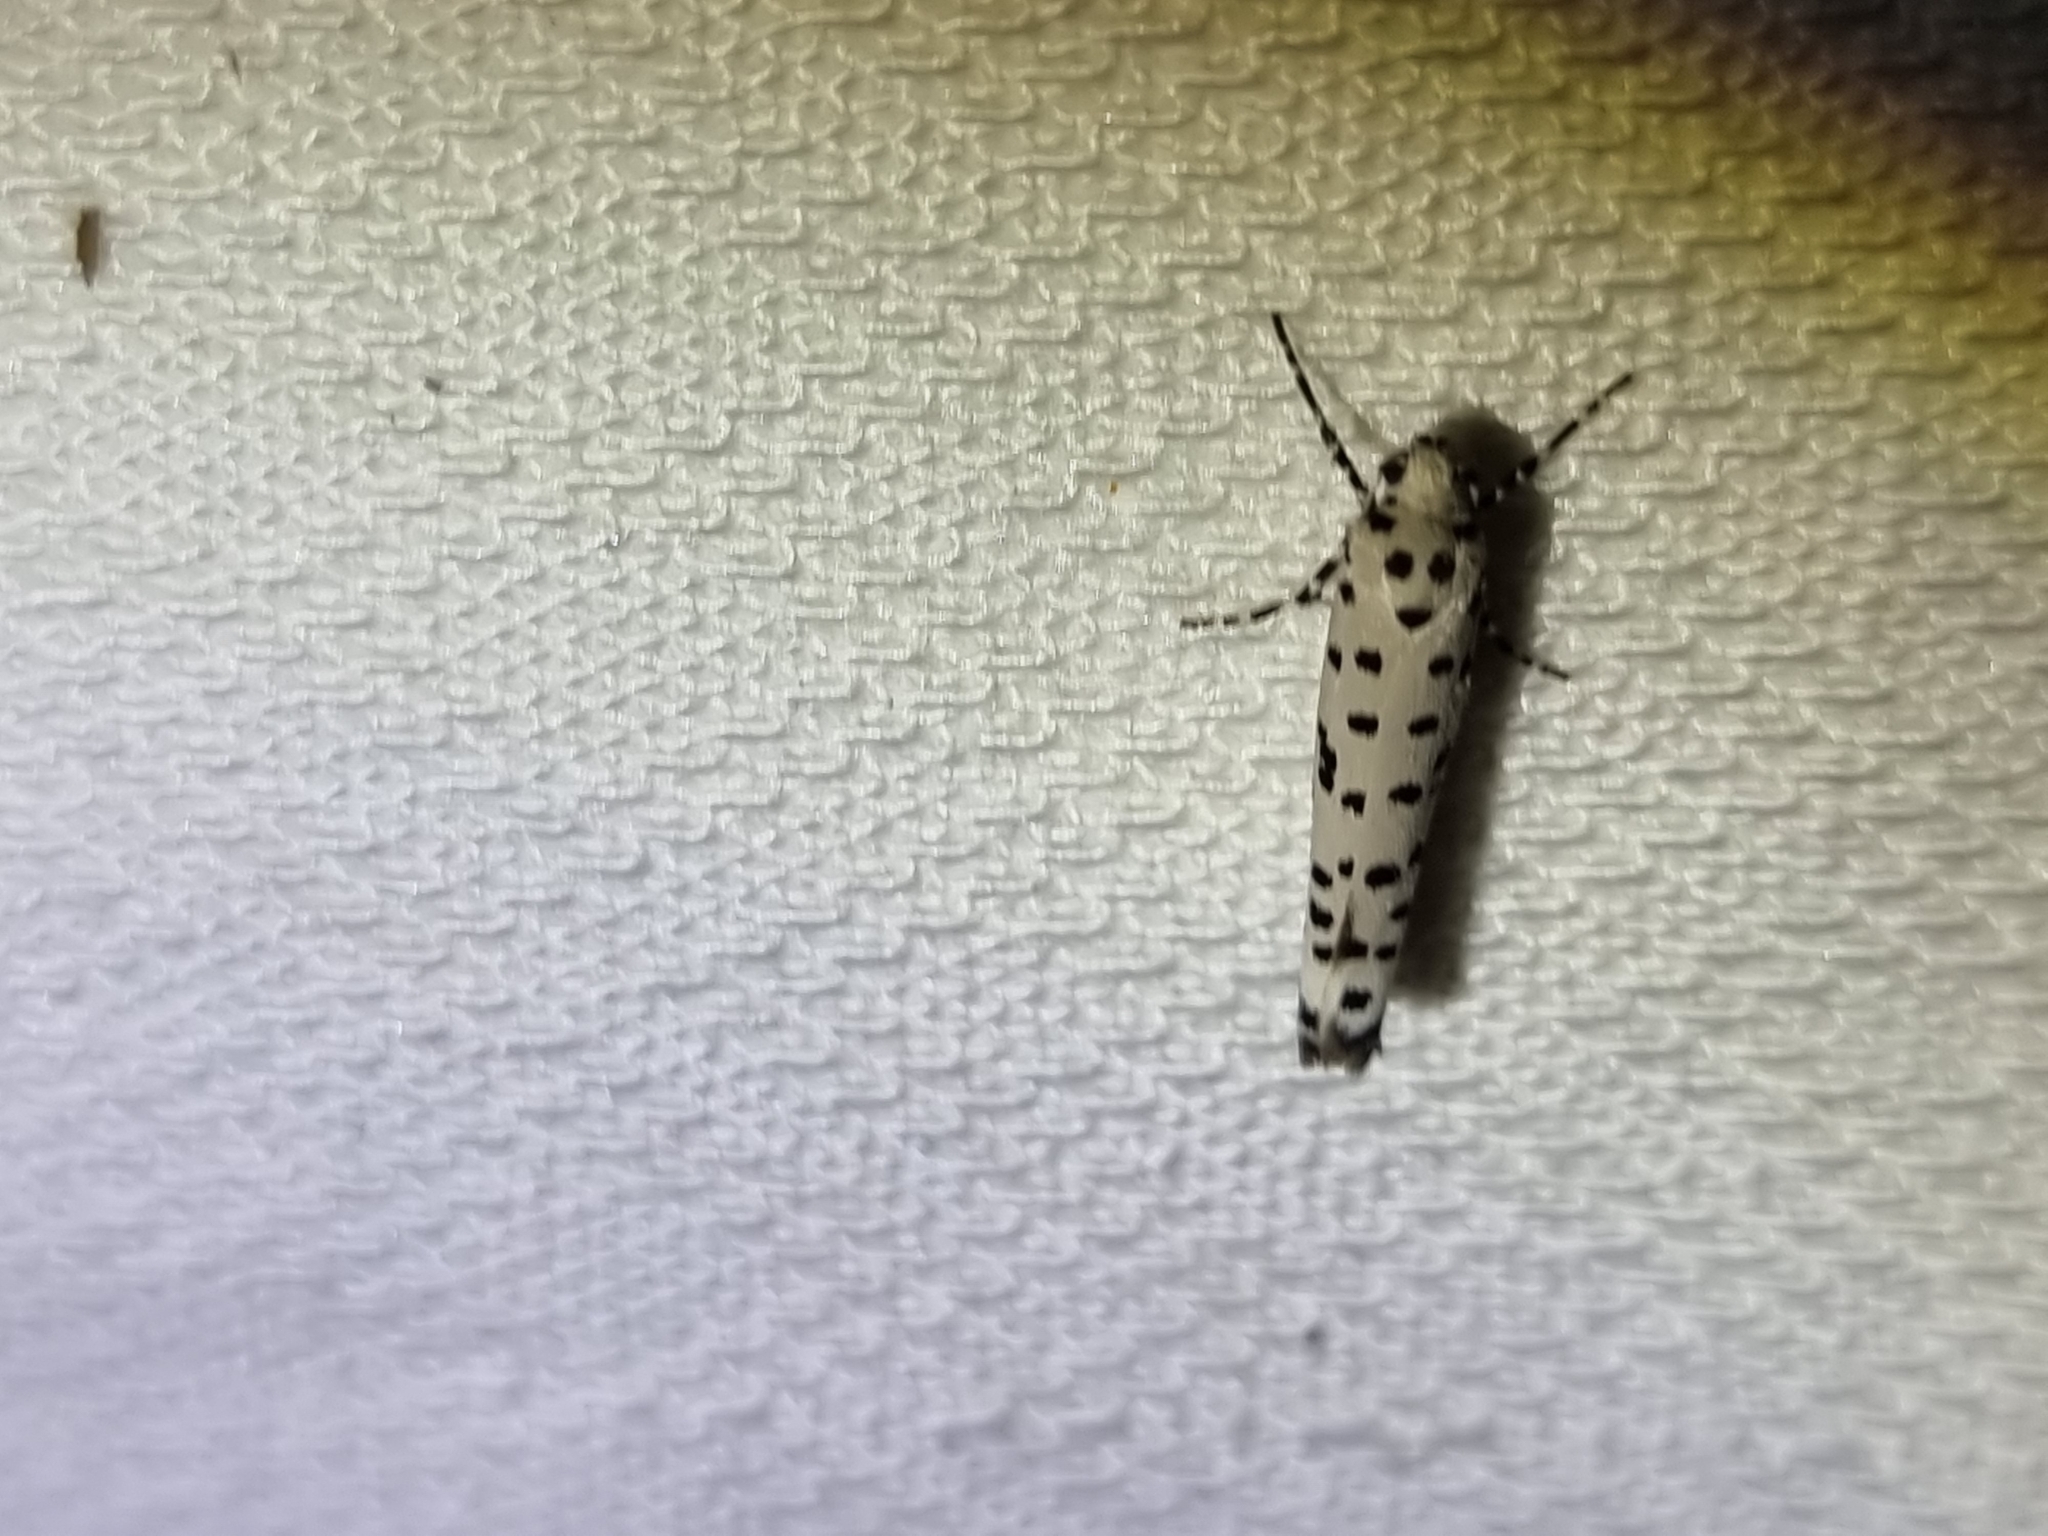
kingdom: Animalia
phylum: Arthropoda
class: Insecta
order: Lepidoptera
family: Yponomeutidae
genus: Yponomeuta
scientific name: Yponomeuta internellus
